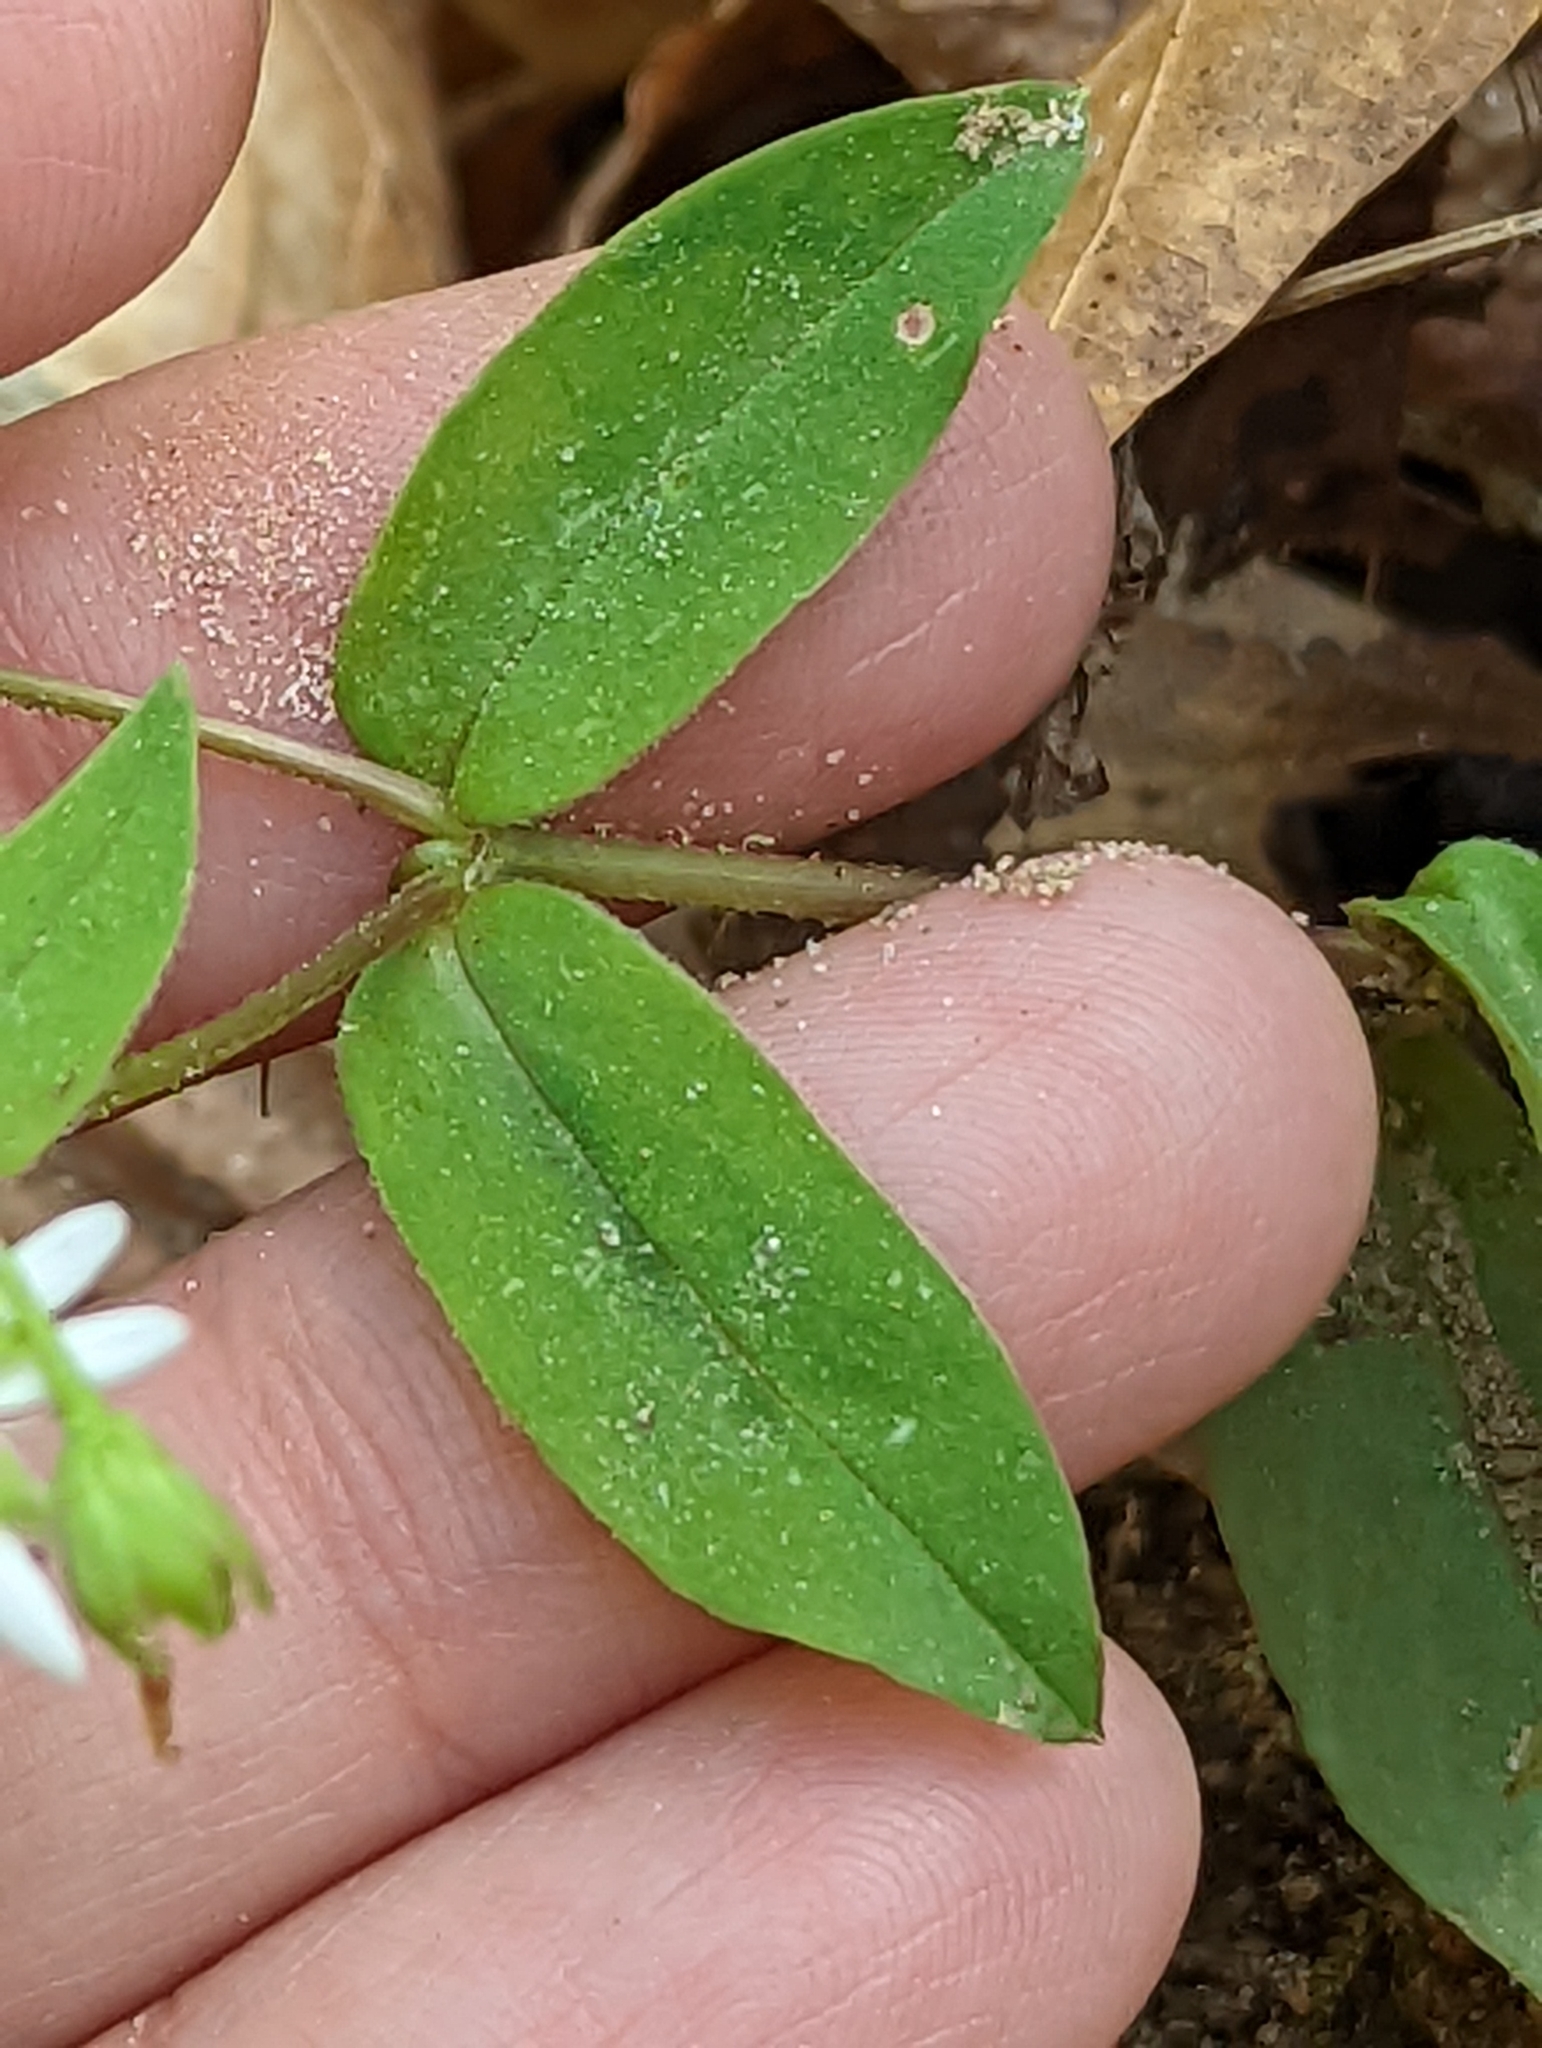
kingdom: Plantae
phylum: Tracheophyta
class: Magnoliopsida
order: Caryophyllales
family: Caryophyllaceae
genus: Stellaria
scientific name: Stellaria pubera
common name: Star chickweed
